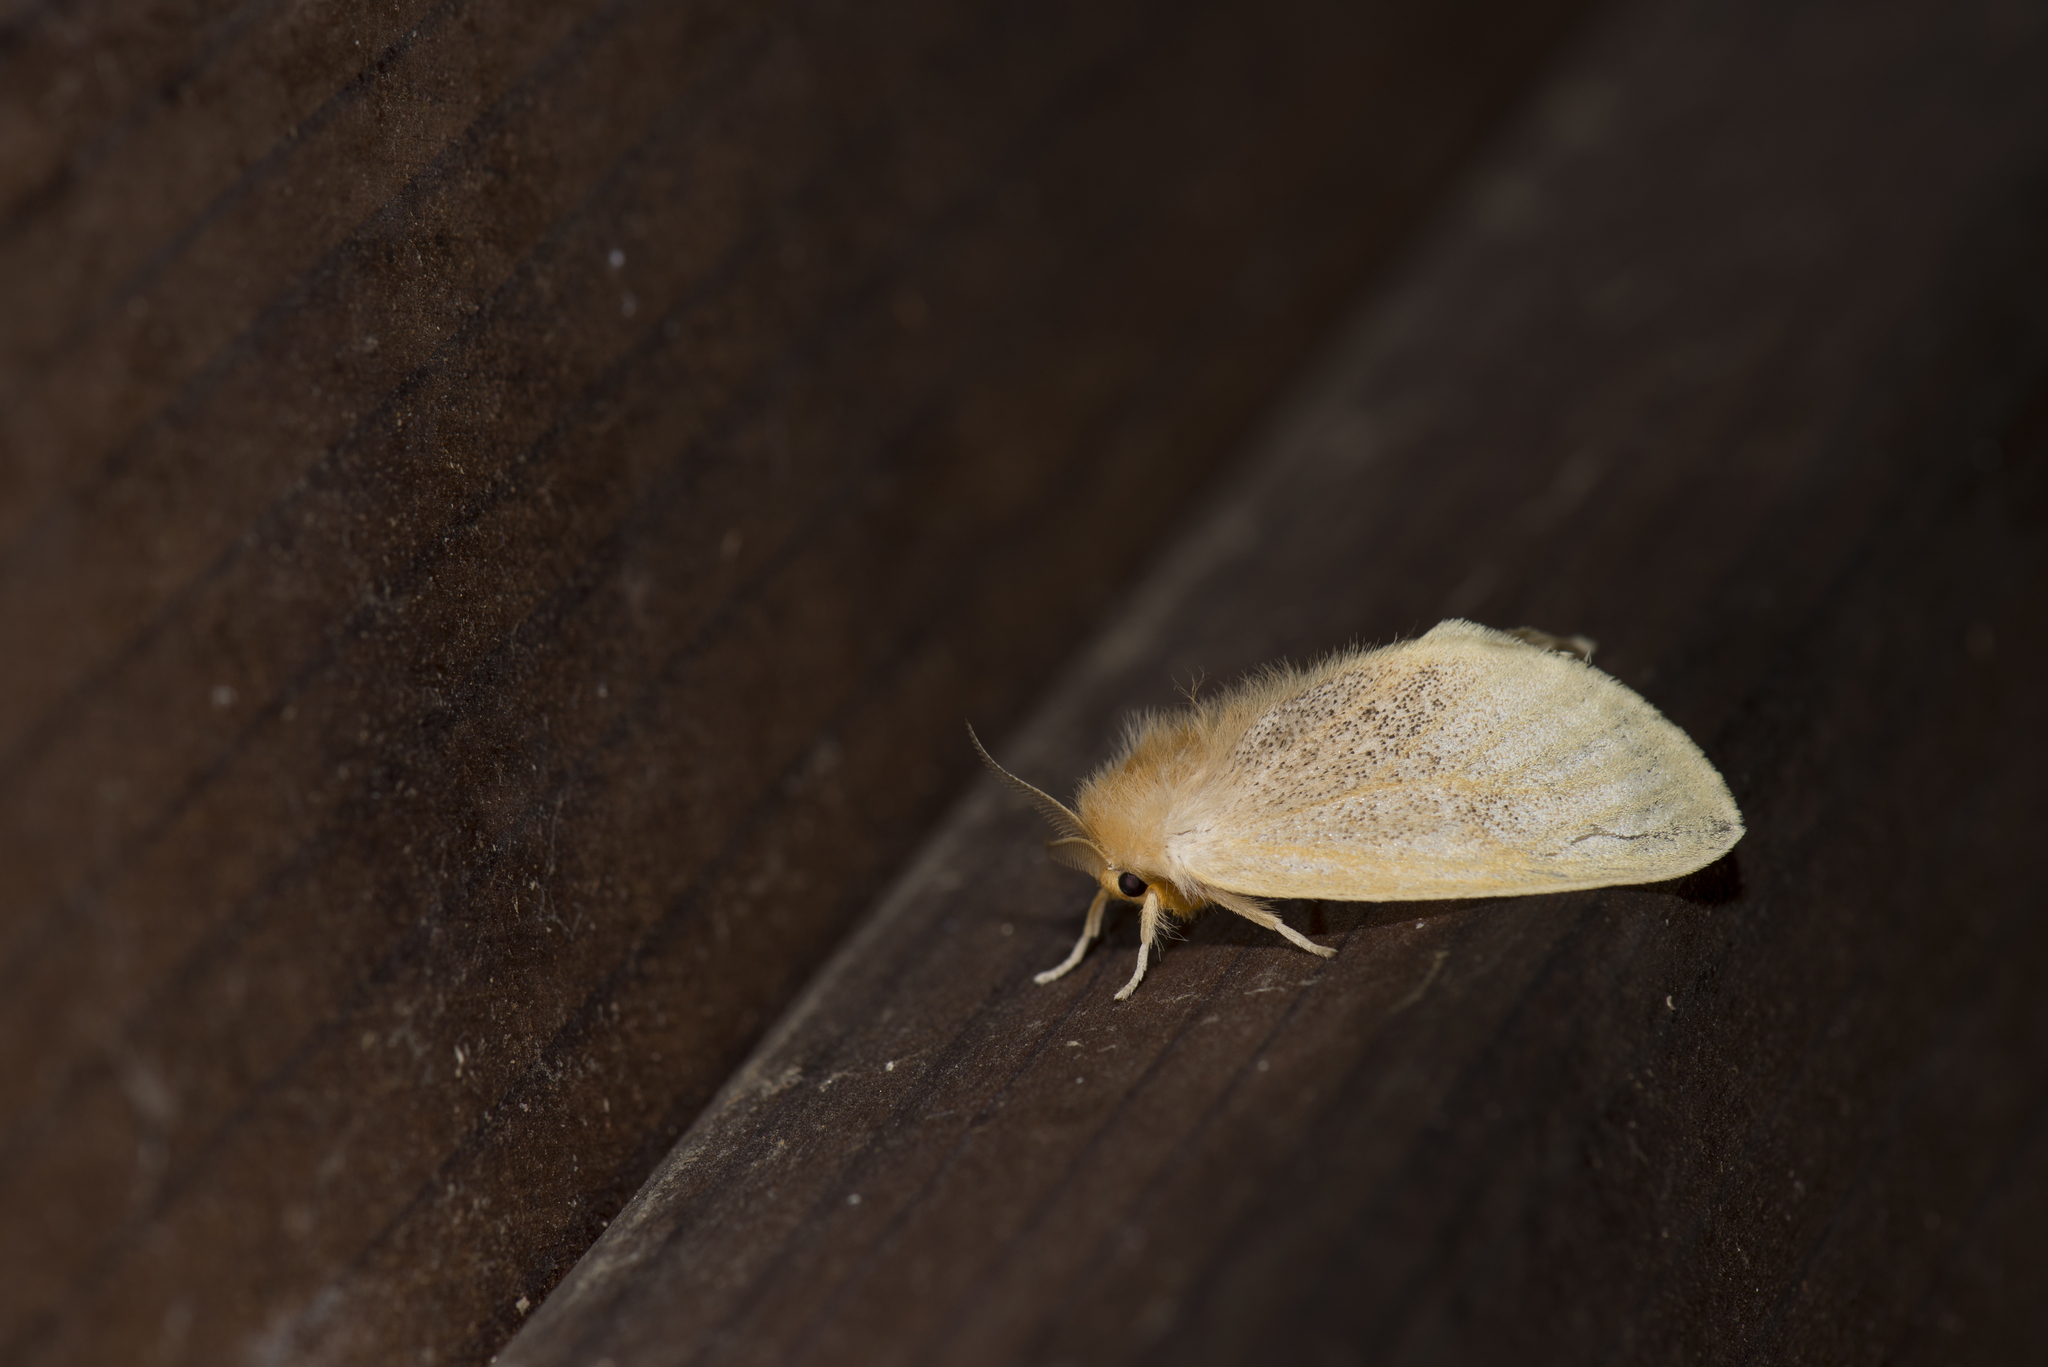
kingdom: Animalia
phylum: Arthropoda
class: Insecta
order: Lepidoptera
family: Erebidae
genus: Perina
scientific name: Perina nuda
